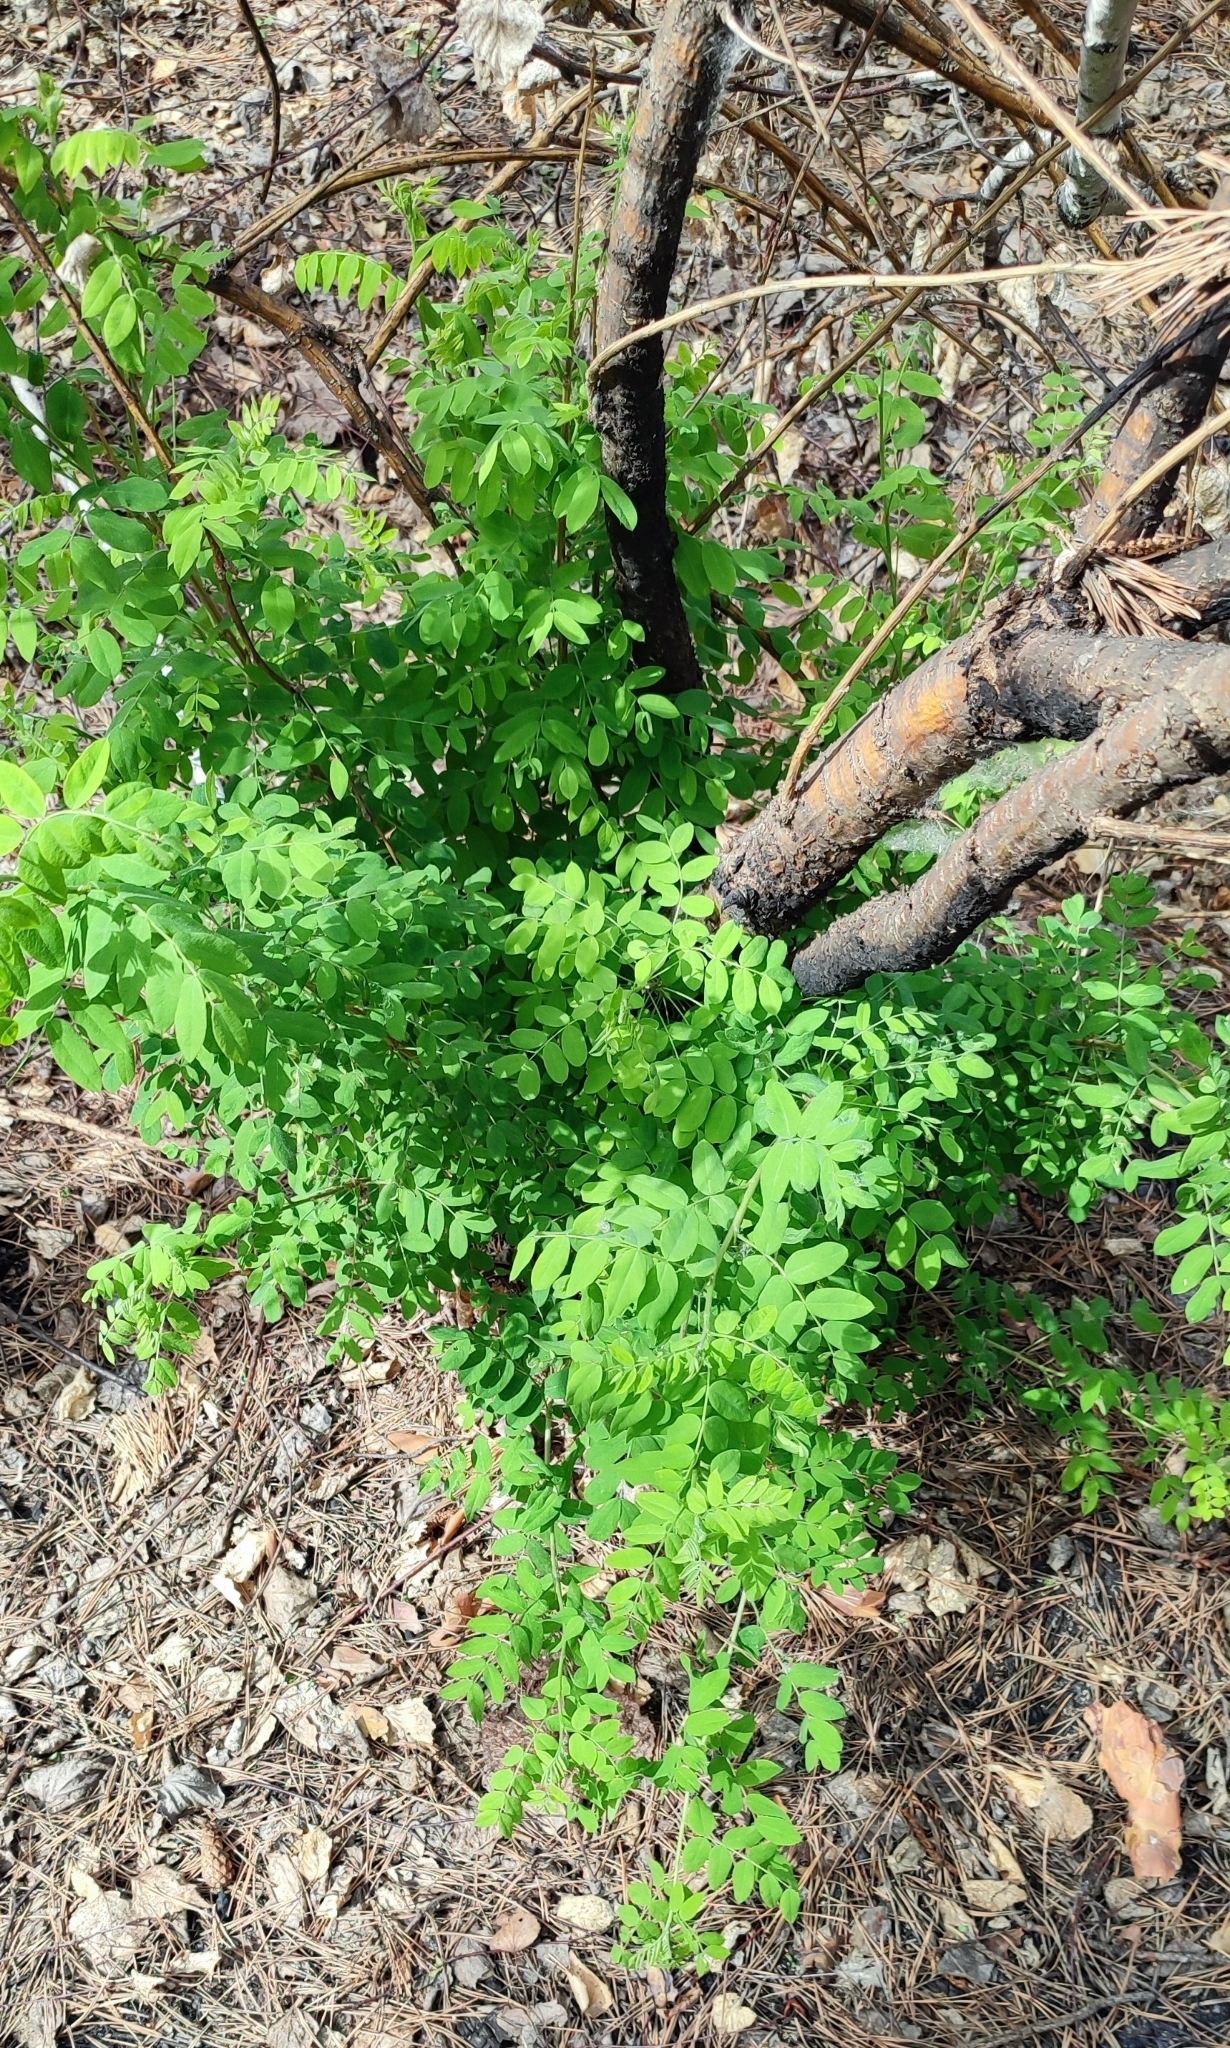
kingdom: Plantae
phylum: Tracheophyta
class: Magnoliopsida
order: Fabales
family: Fabaceae
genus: Caragana
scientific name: Caragana arborescens
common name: Siberian peashrub
